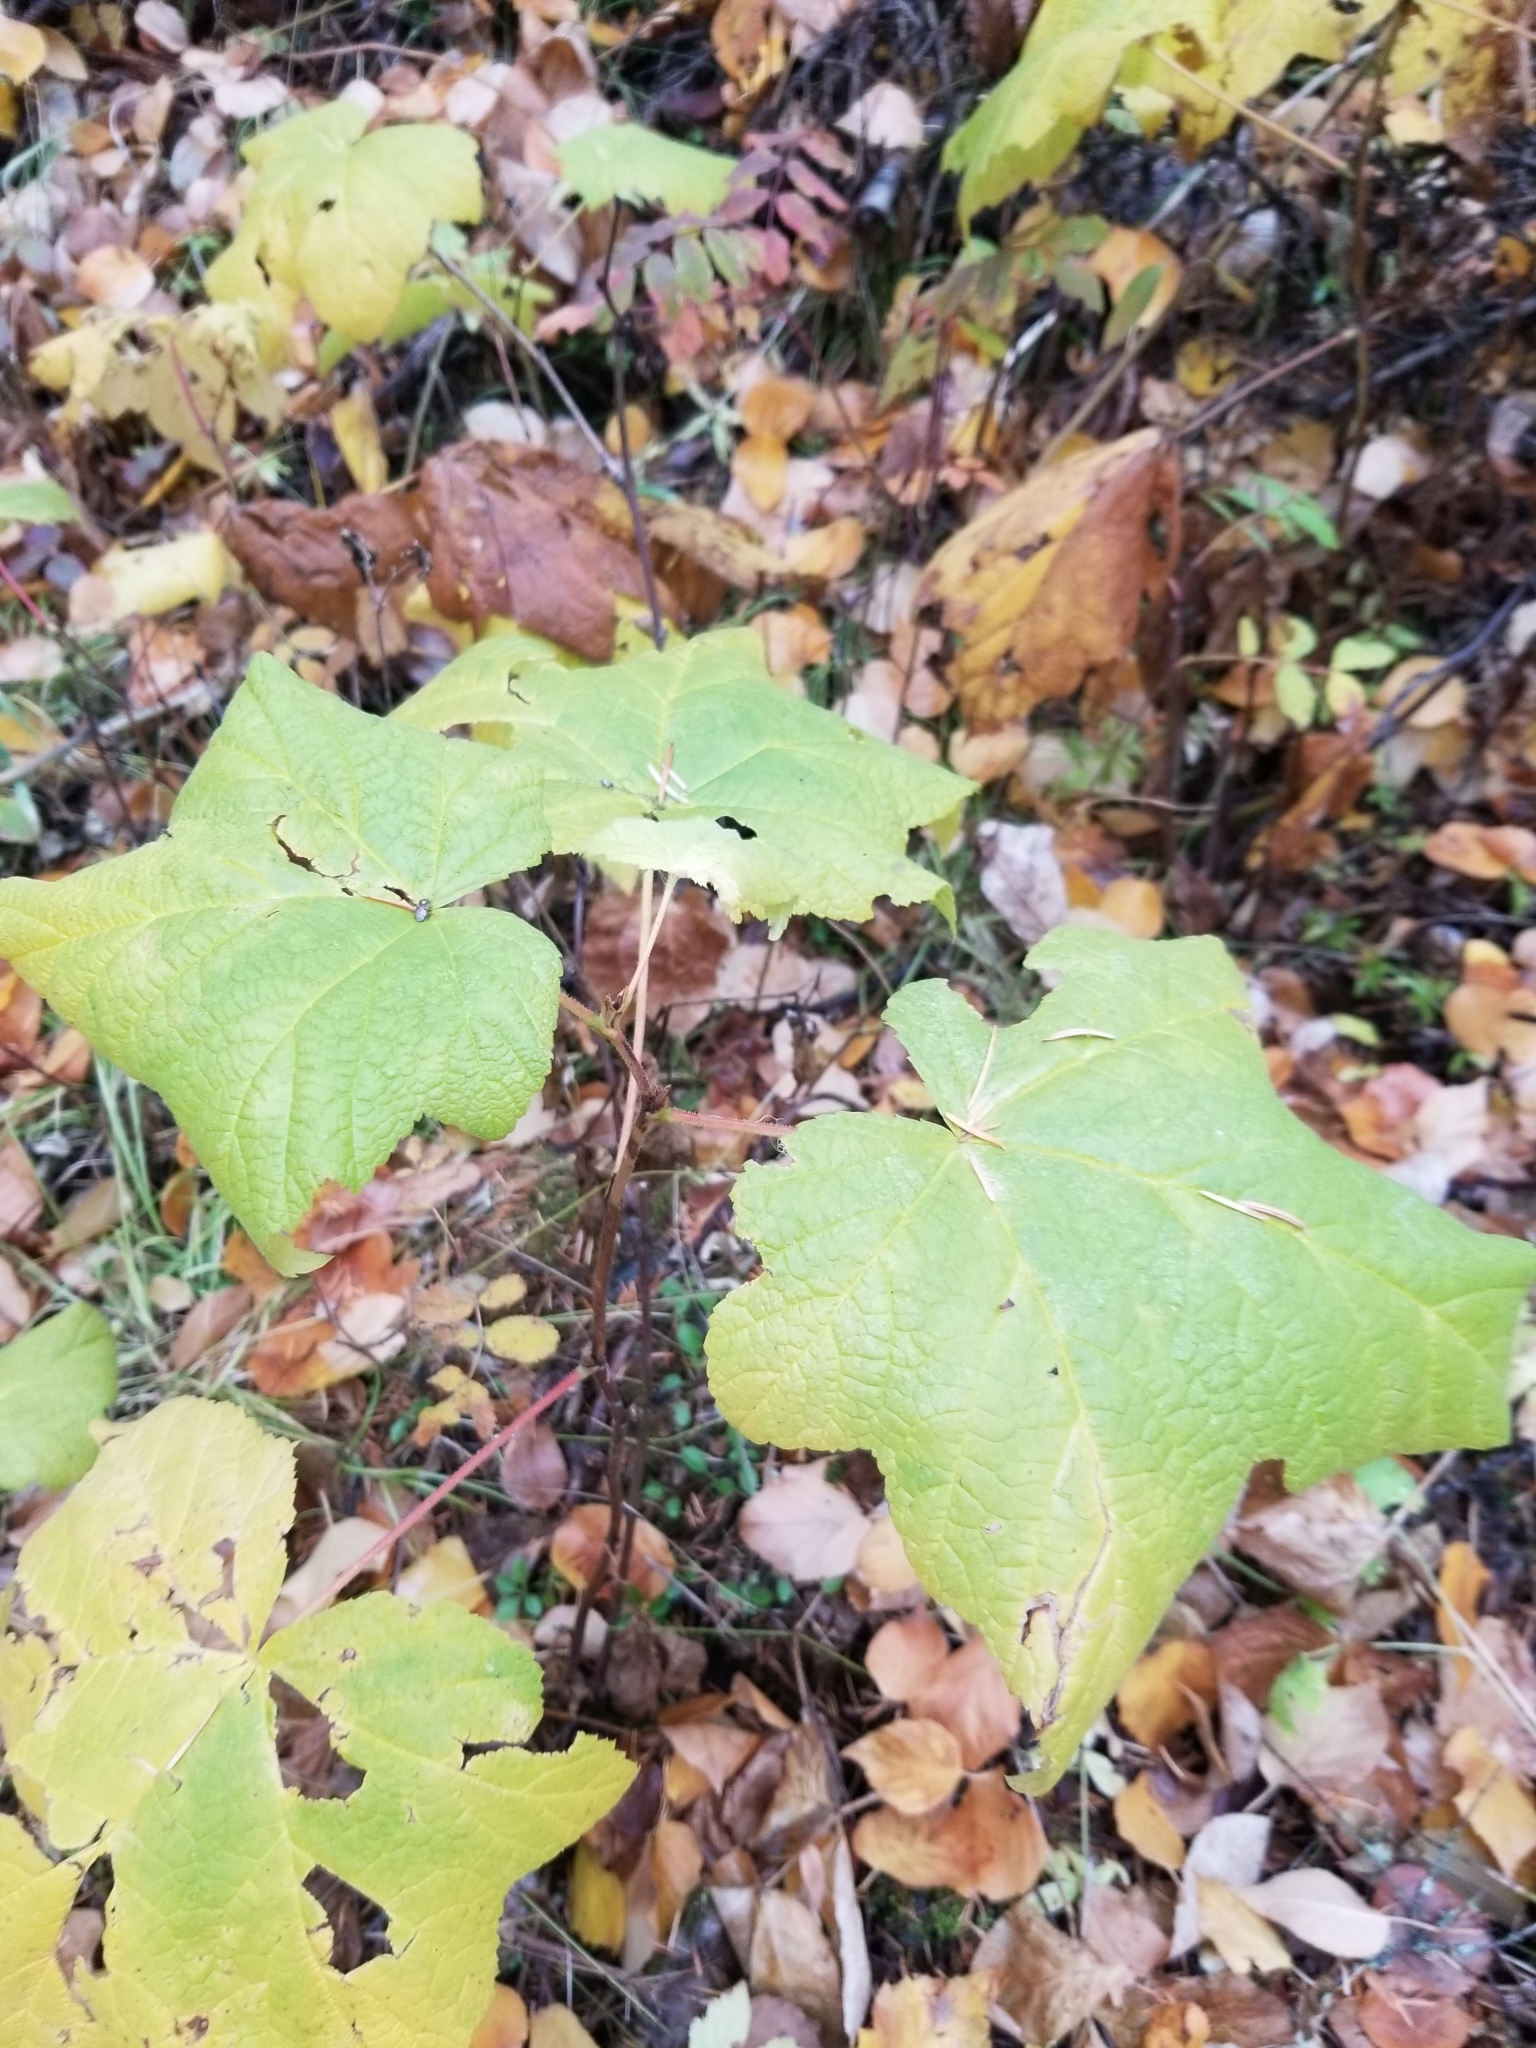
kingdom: Plantae
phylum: Tracheophyta
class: Magnoliopsida
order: Rosales
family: Rosaceae
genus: Rubus
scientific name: Rubus parviflorus
